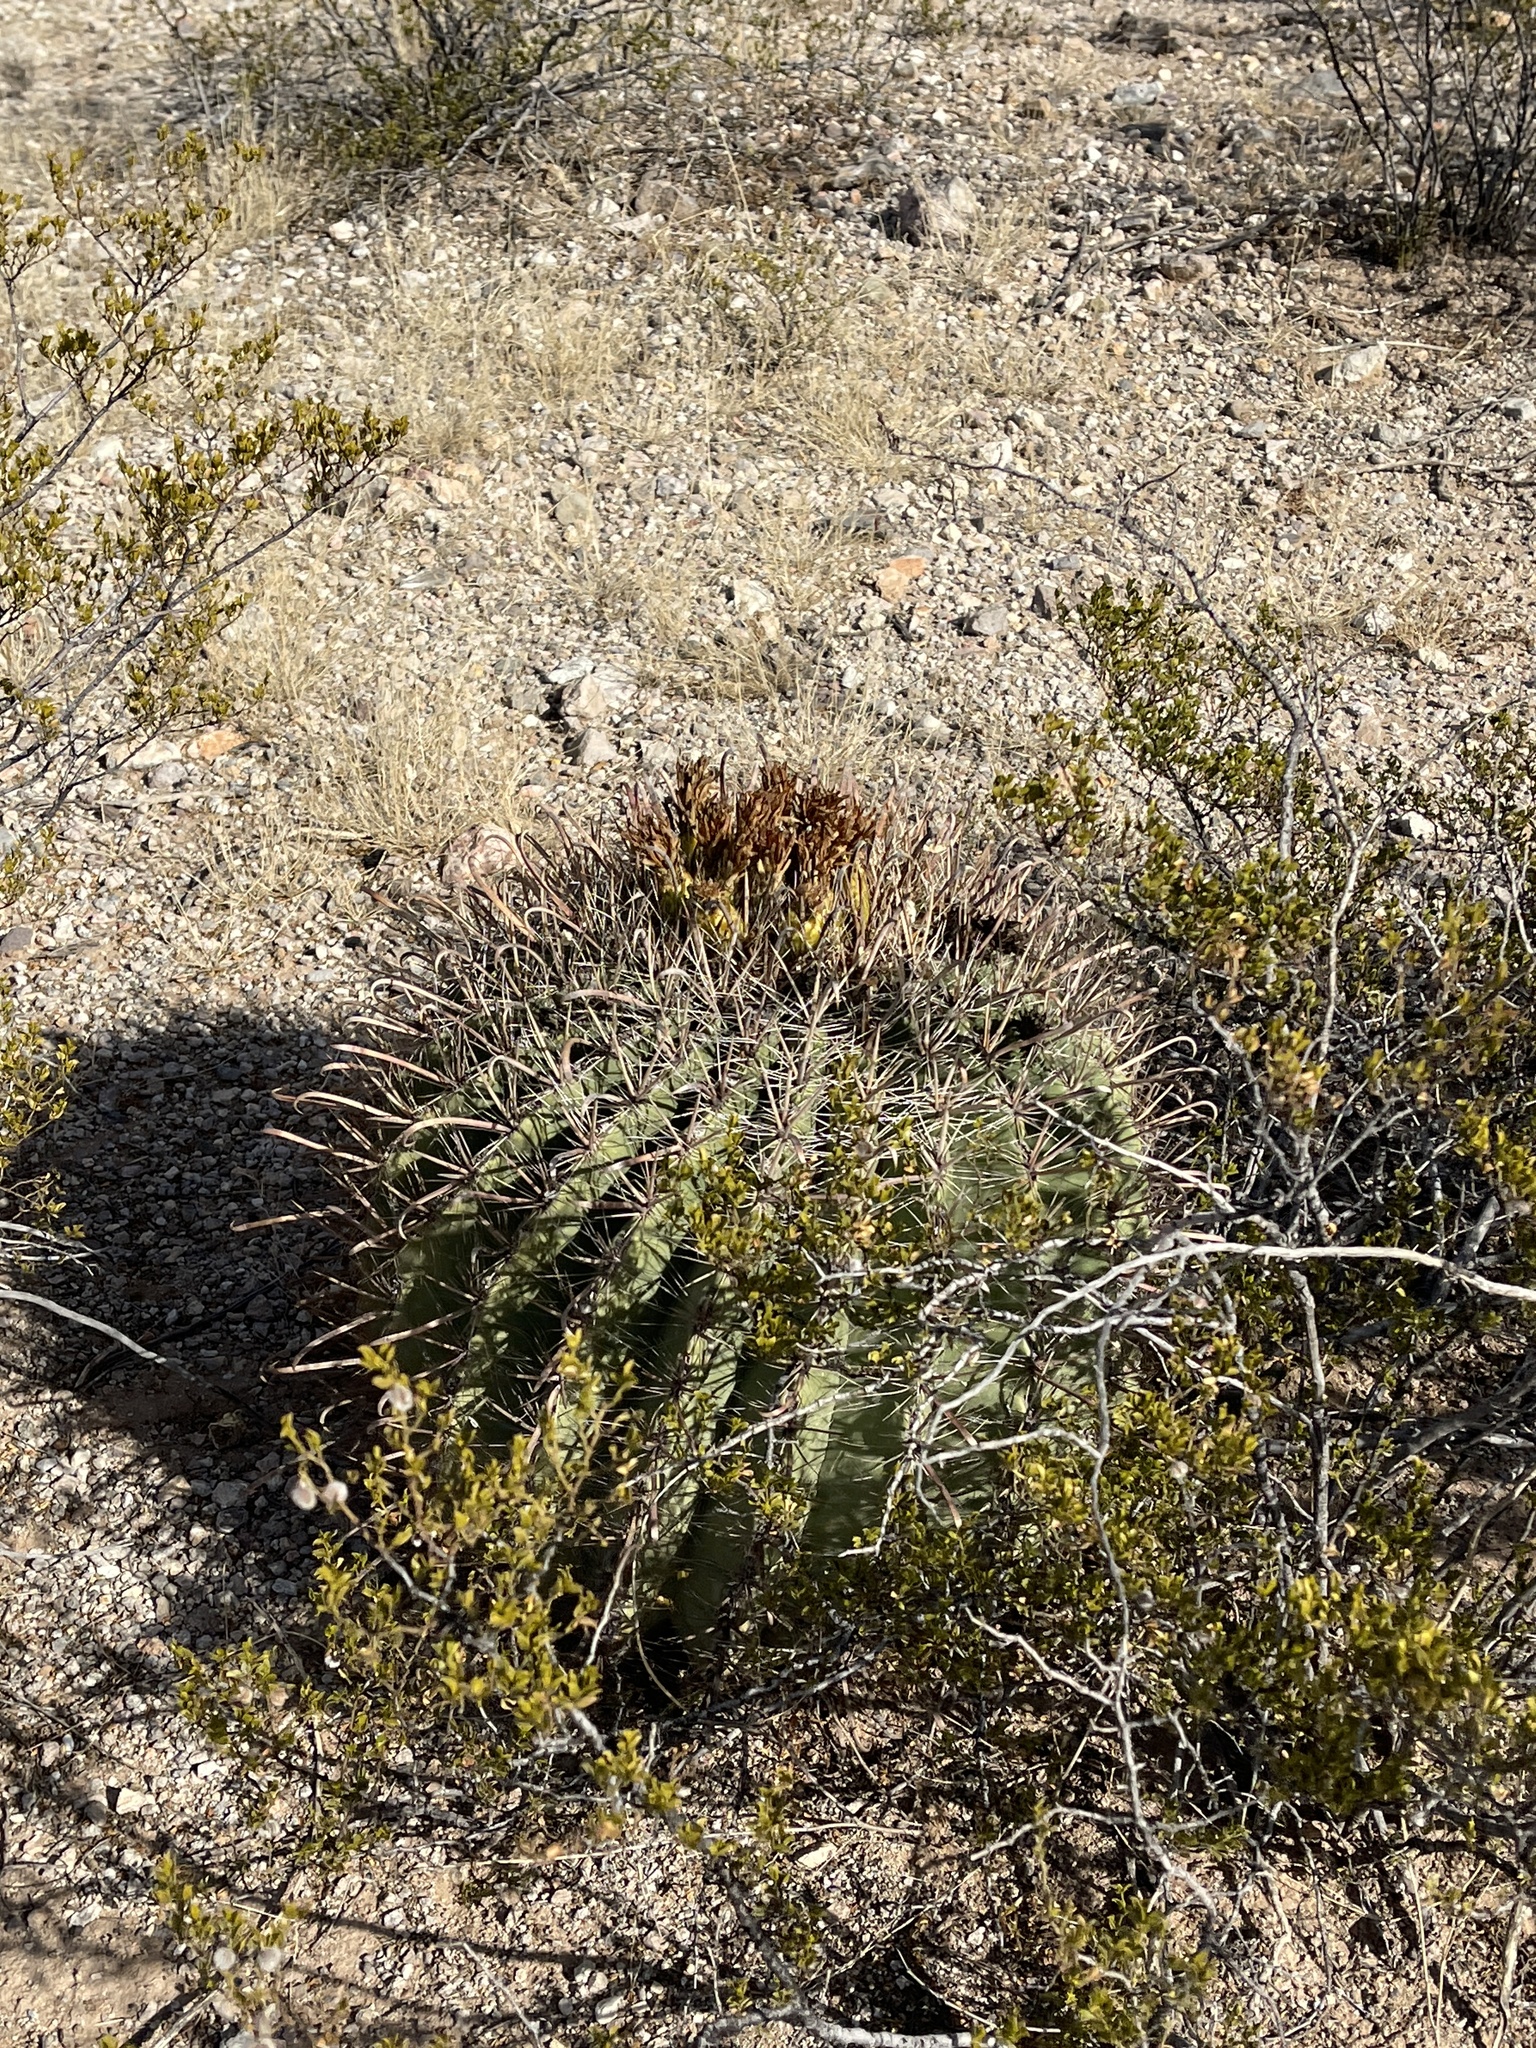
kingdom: Plantae
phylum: Tracheophyta
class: Magnoliopsida
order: Caryophyllales
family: Cactaceae
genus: Ferocactus
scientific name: Ferocactus wislizeni
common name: Candy barrel cactus
